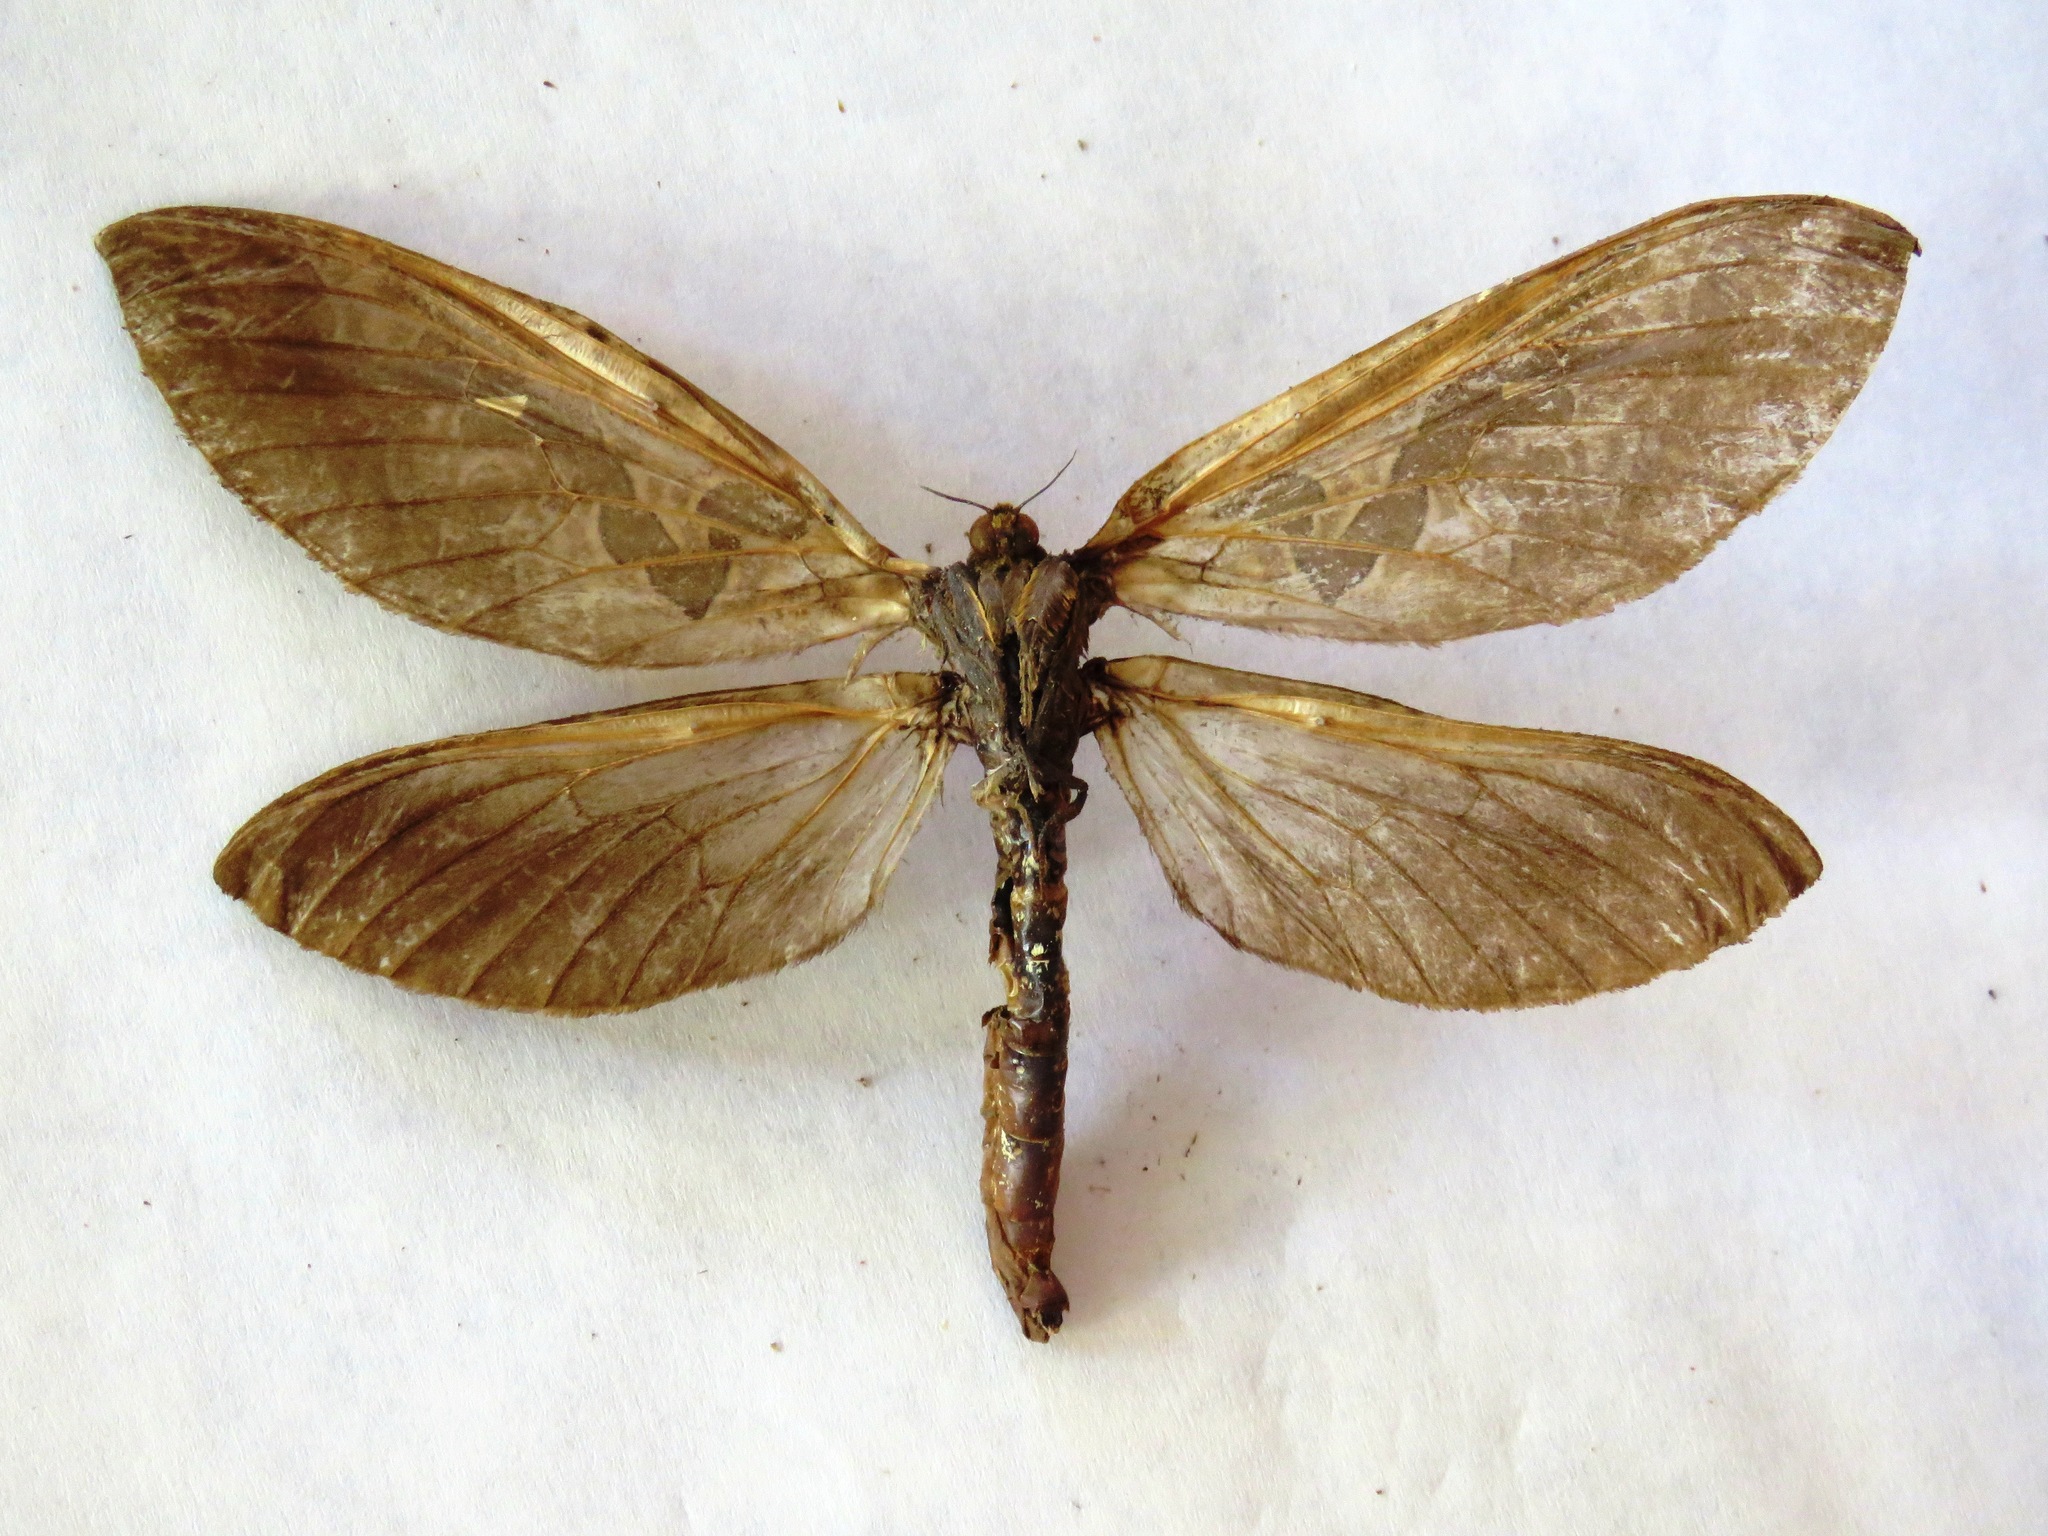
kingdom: Animalia
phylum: Arthropoda
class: Insecta
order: Lepidoptera
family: Hepialidae
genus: Phassus
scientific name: Phassus huebneri
